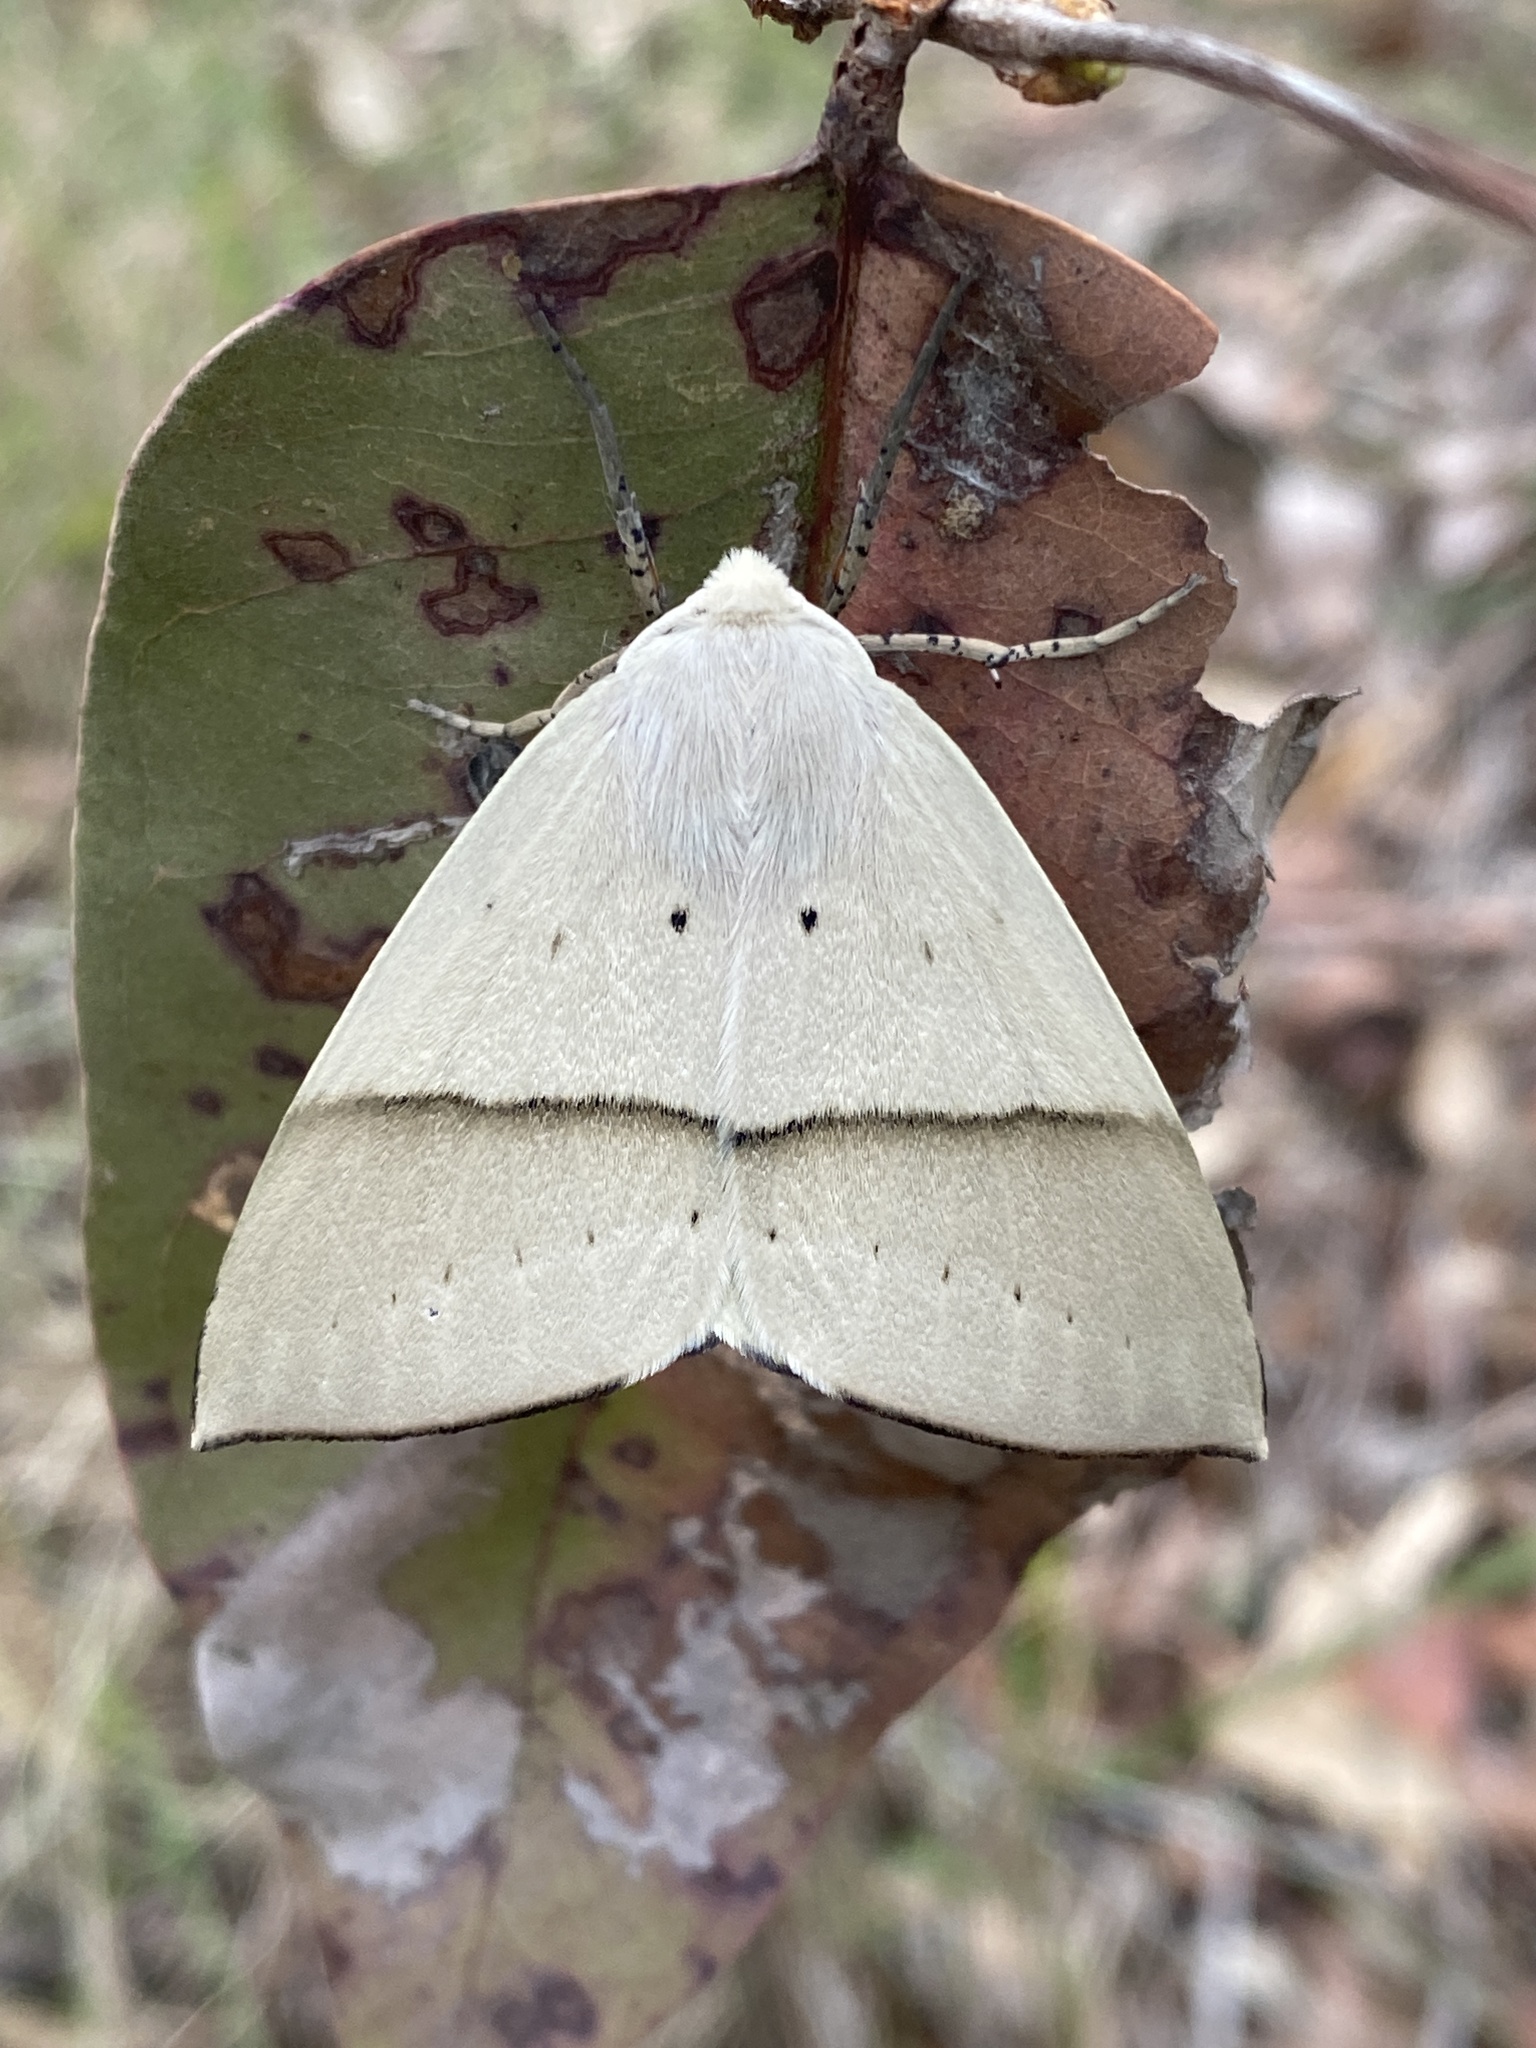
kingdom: Animalia
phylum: Arthropoda
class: Insecta
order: Lepidoptera
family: Geometridae
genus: Gastrophora
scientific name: Gastrophora henricaria
